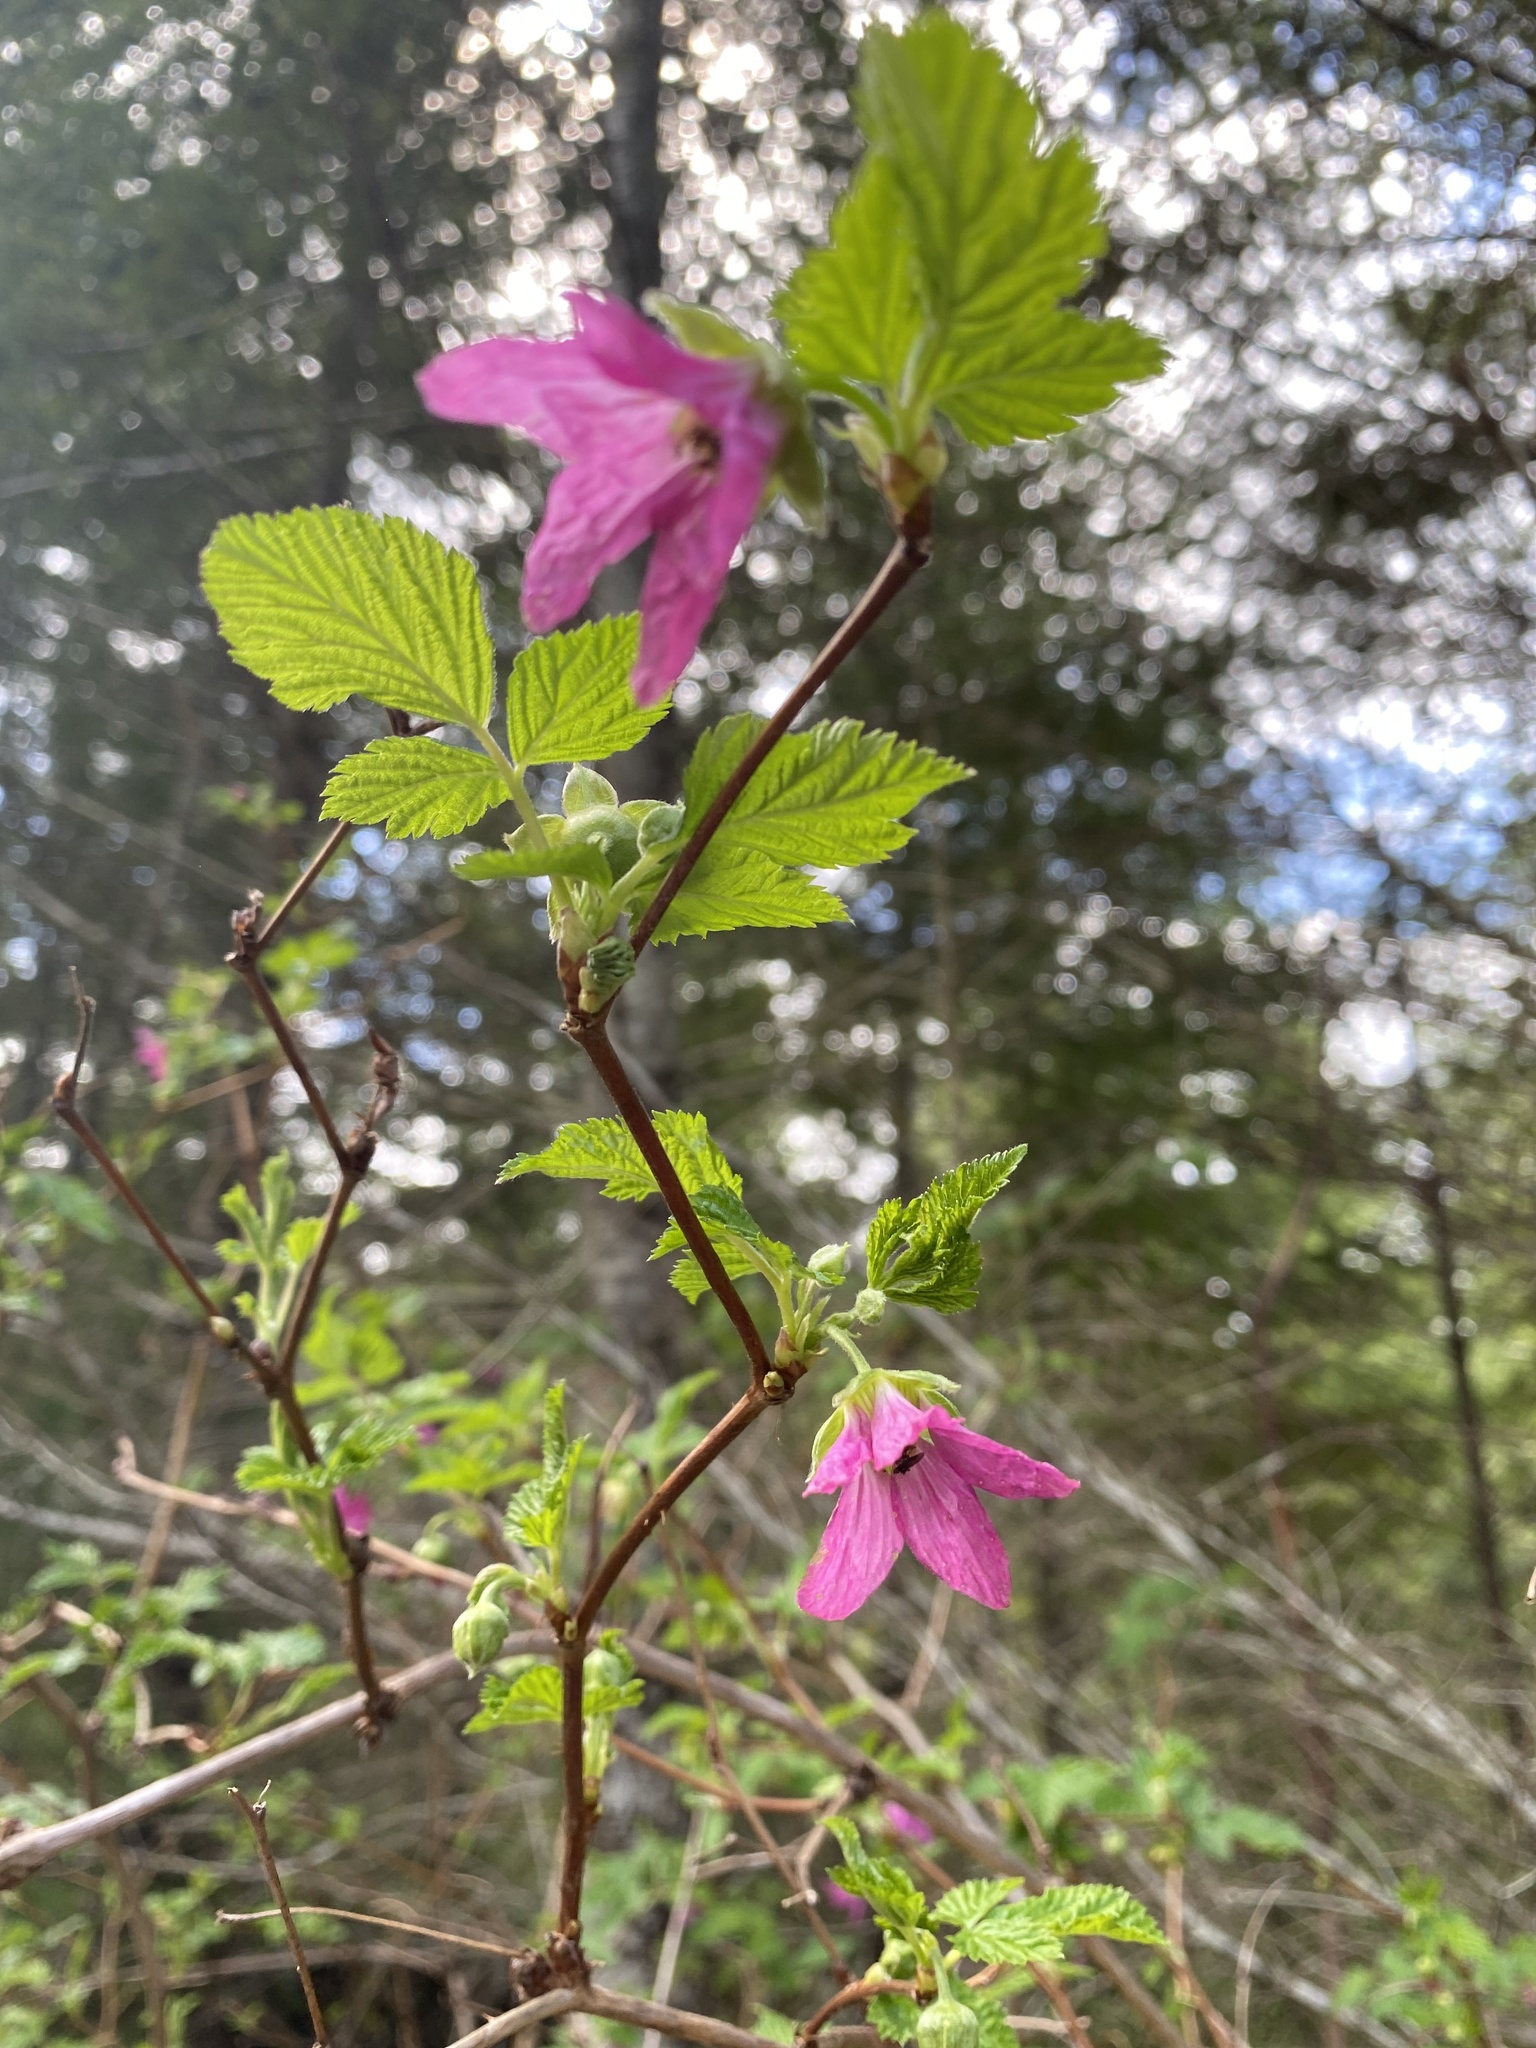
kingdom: Plantae
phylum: Tracheophyta
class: Magnoliopsida
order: Rosales
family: Rosaceae
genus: Rubus
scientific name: Rubus spectabilis
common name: Salmonberry
